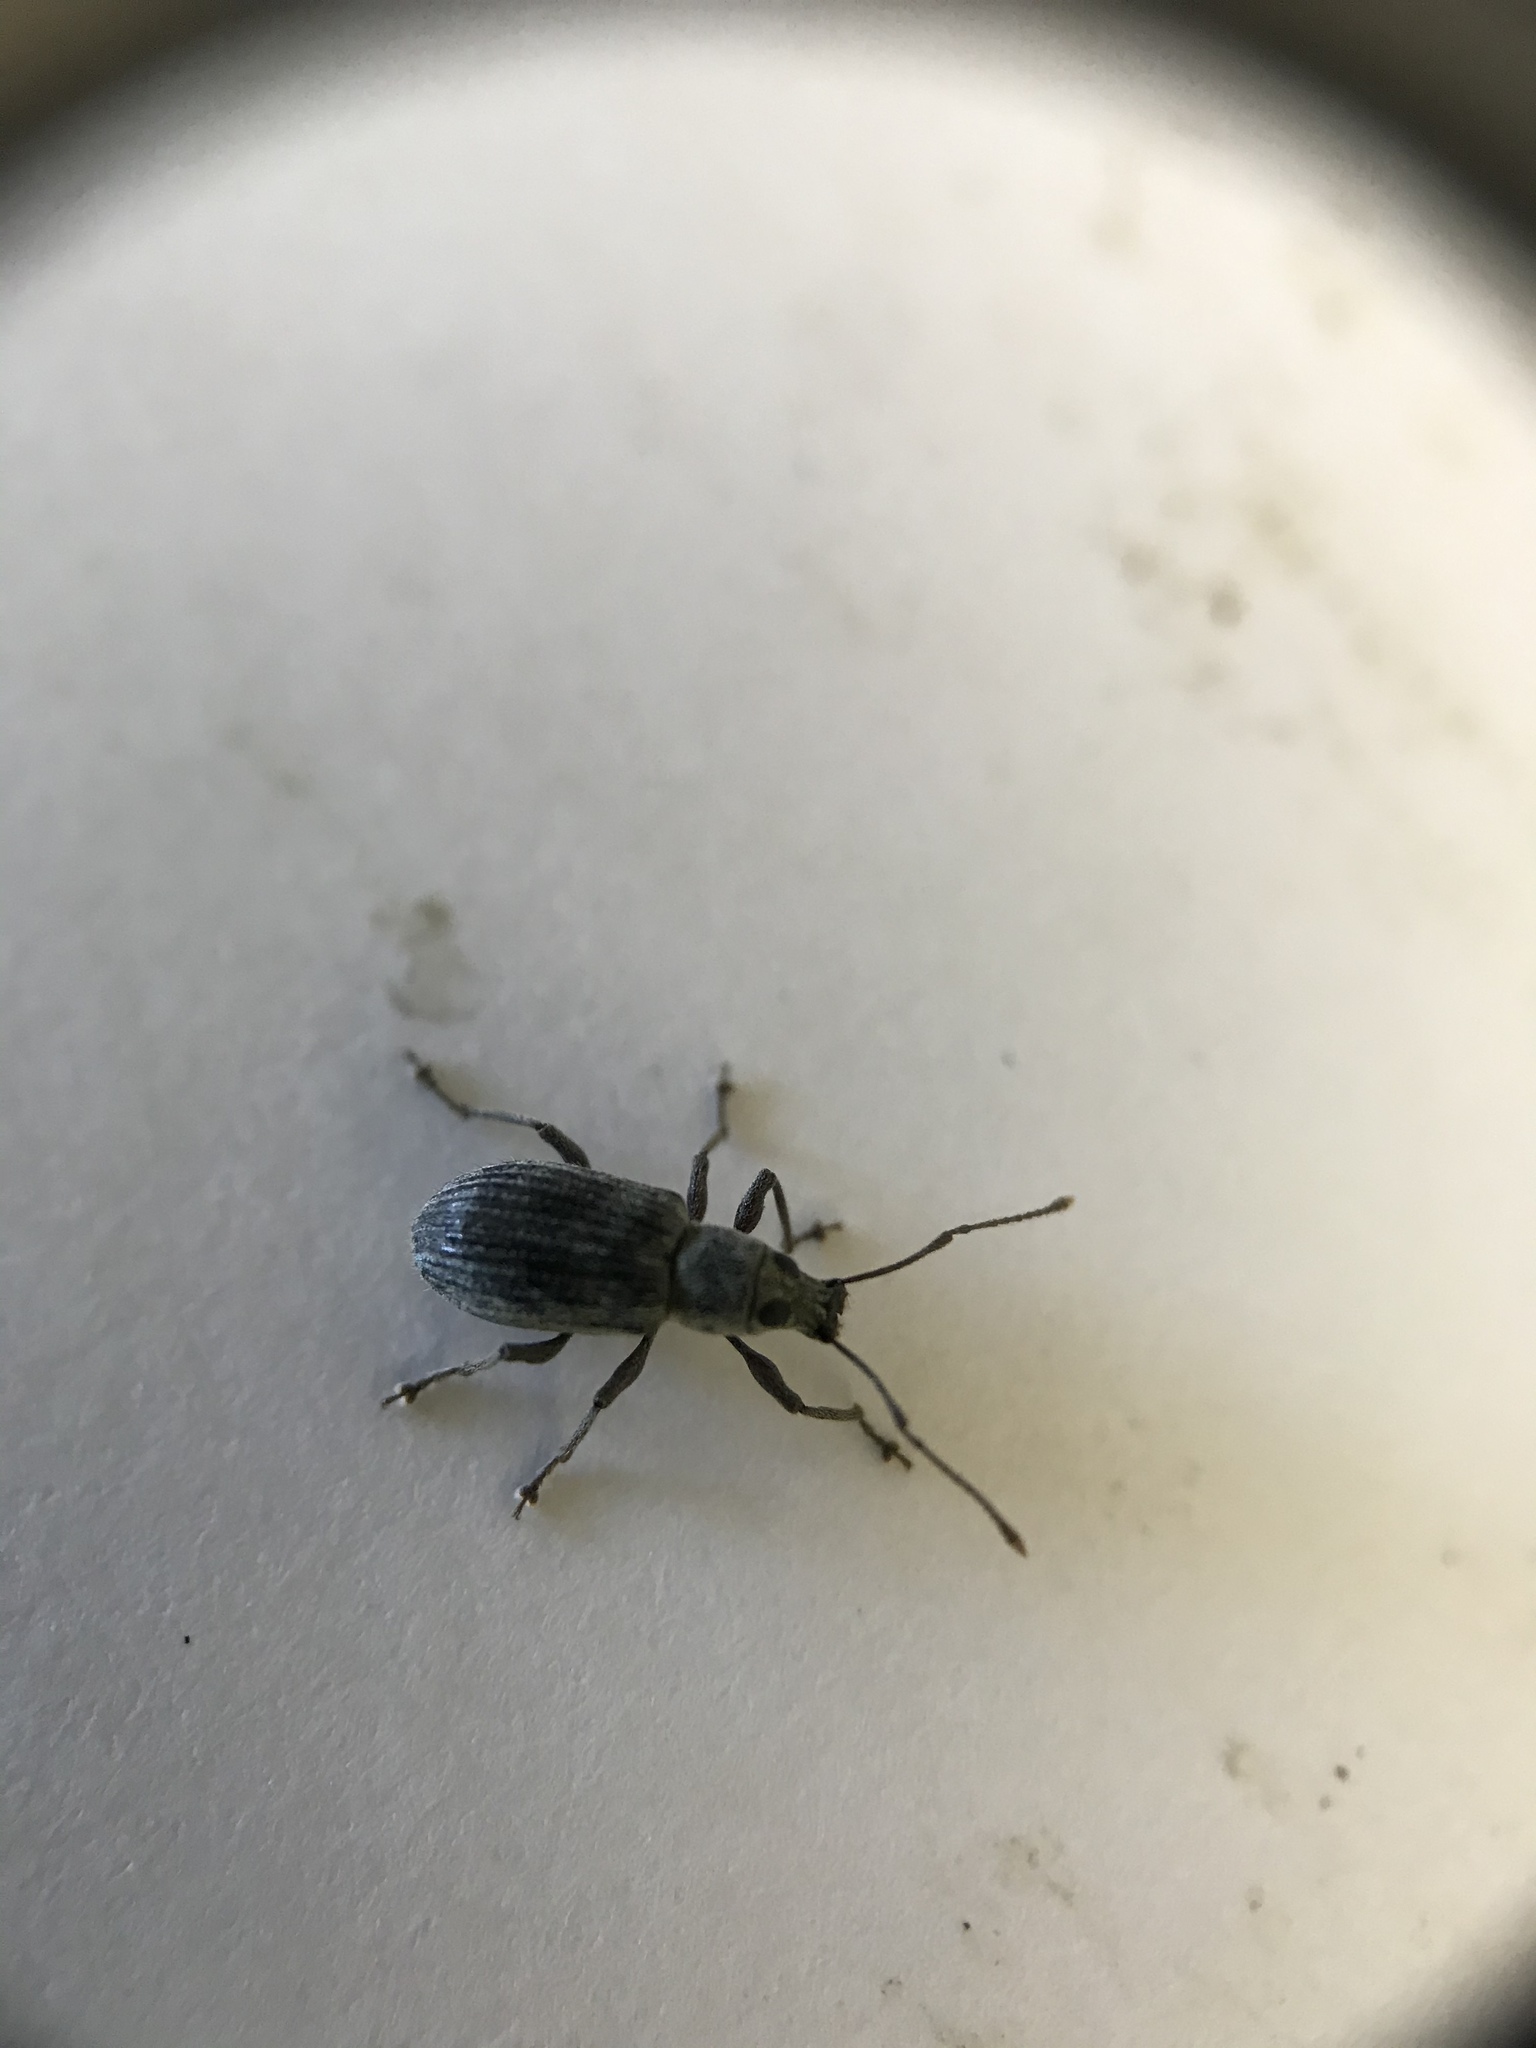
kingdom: Animalia
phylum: Arthropoda
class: Insecta
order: Coleoptera
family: Curculionidae
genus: Cyrtepistomus
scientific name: Cyrtepistomus castaneus
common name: Weevil
